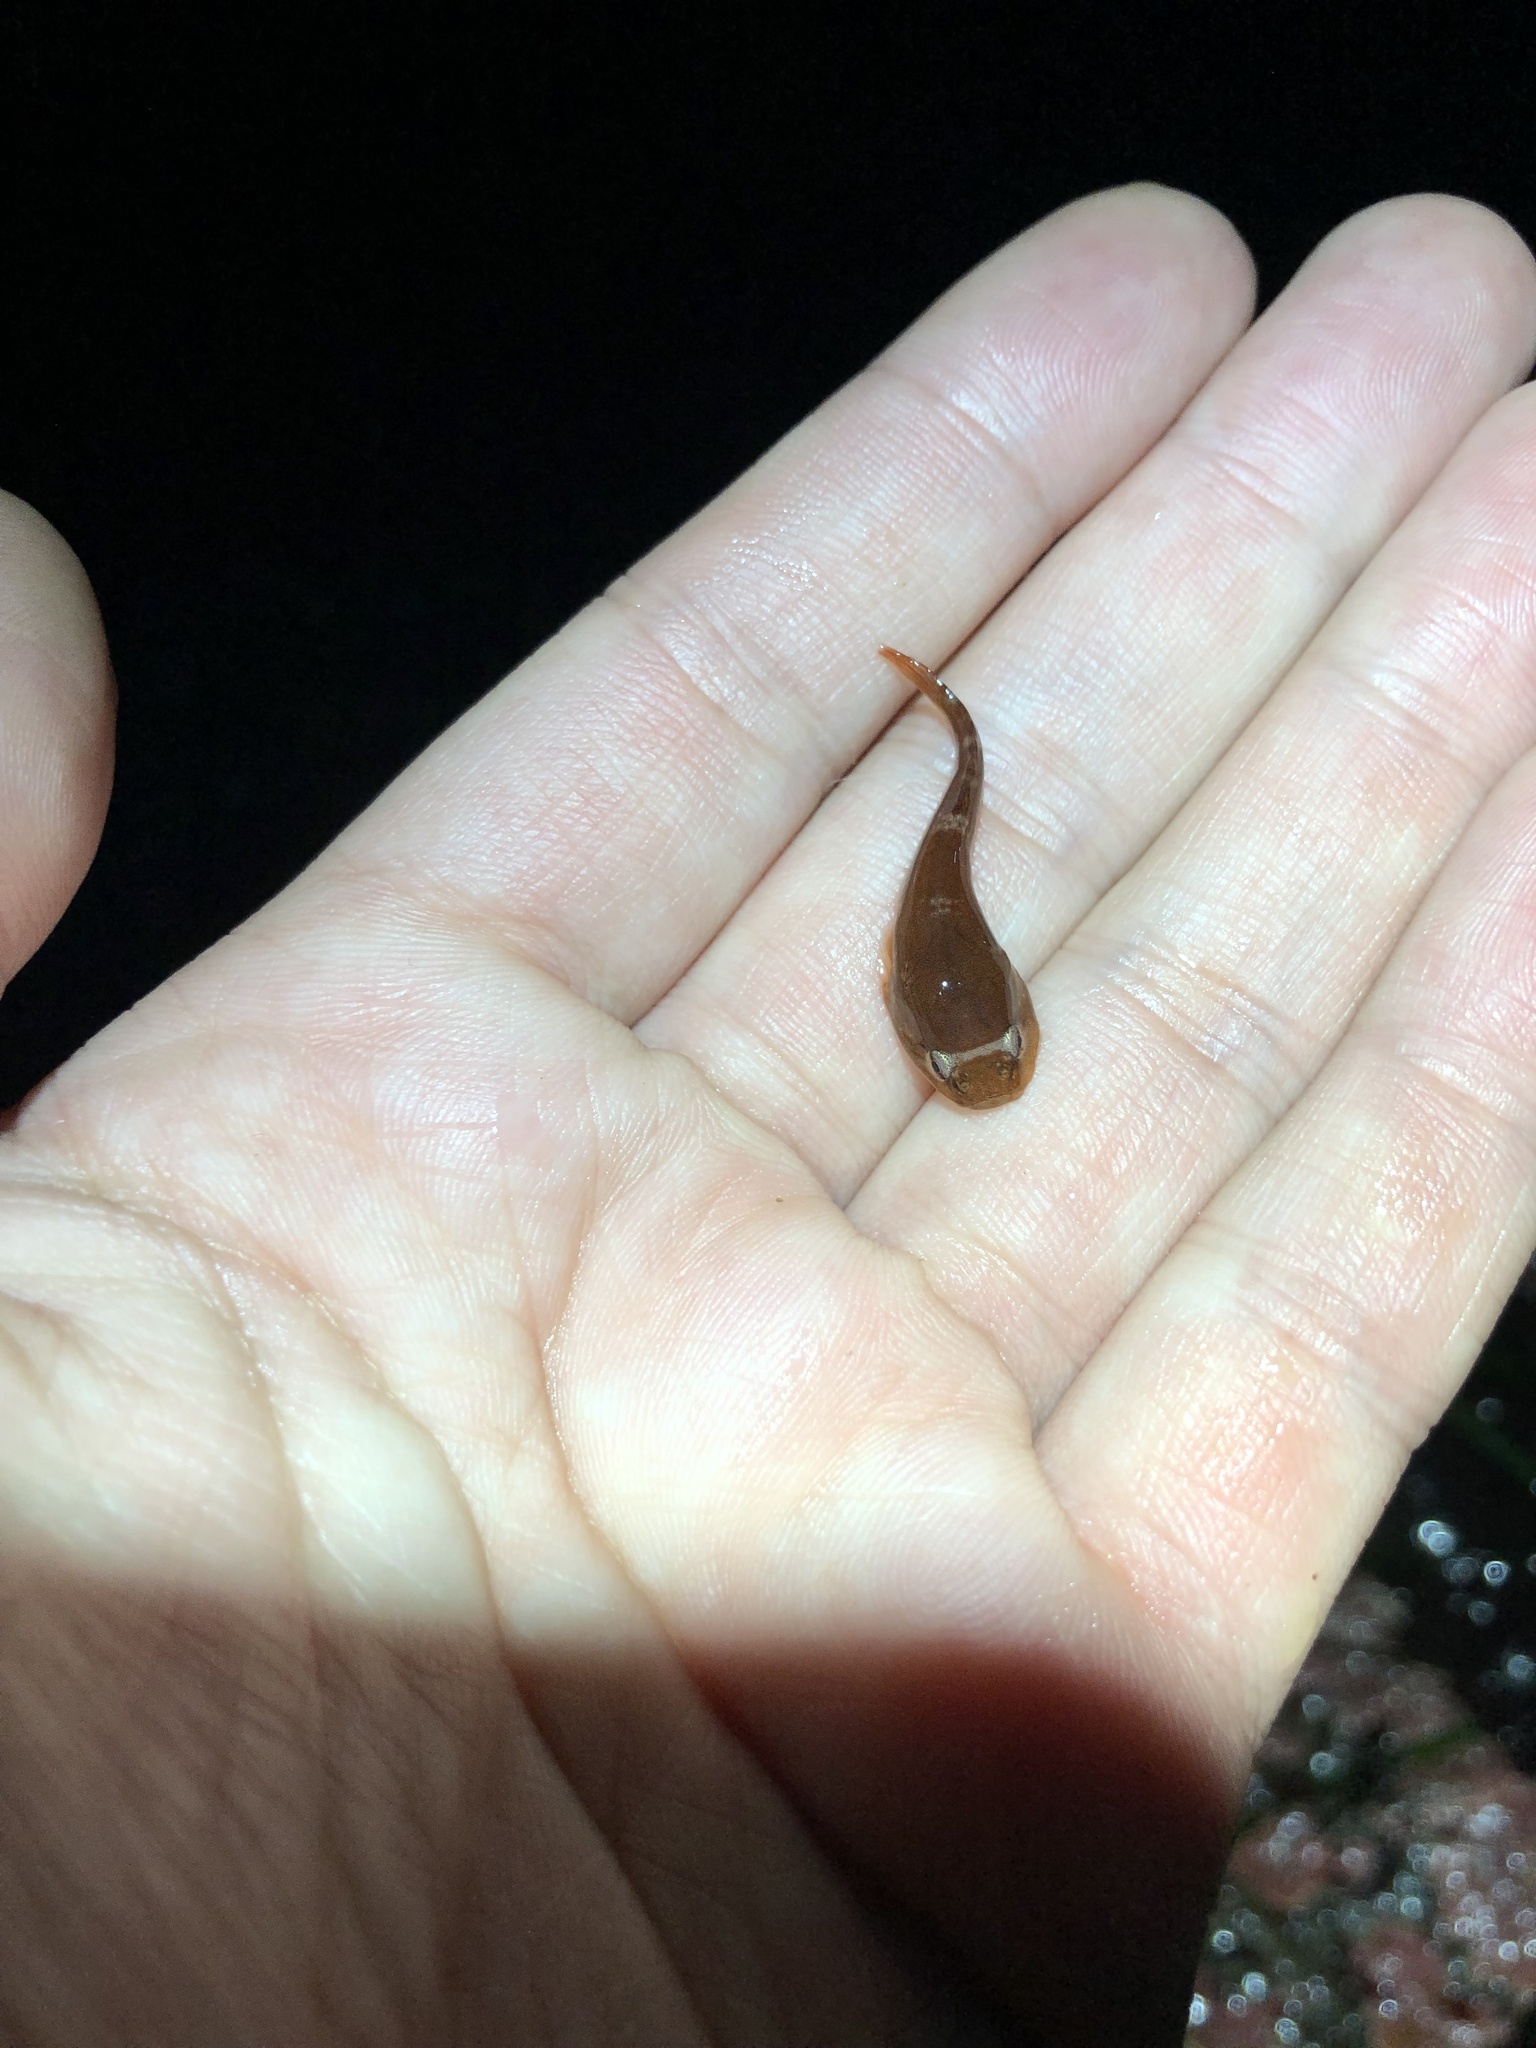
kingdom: Animalia
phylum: Chordata
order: Gobiesociformes
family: Gobiesocidae
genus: Gobiesox
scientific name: Gobiesox maeandricus
